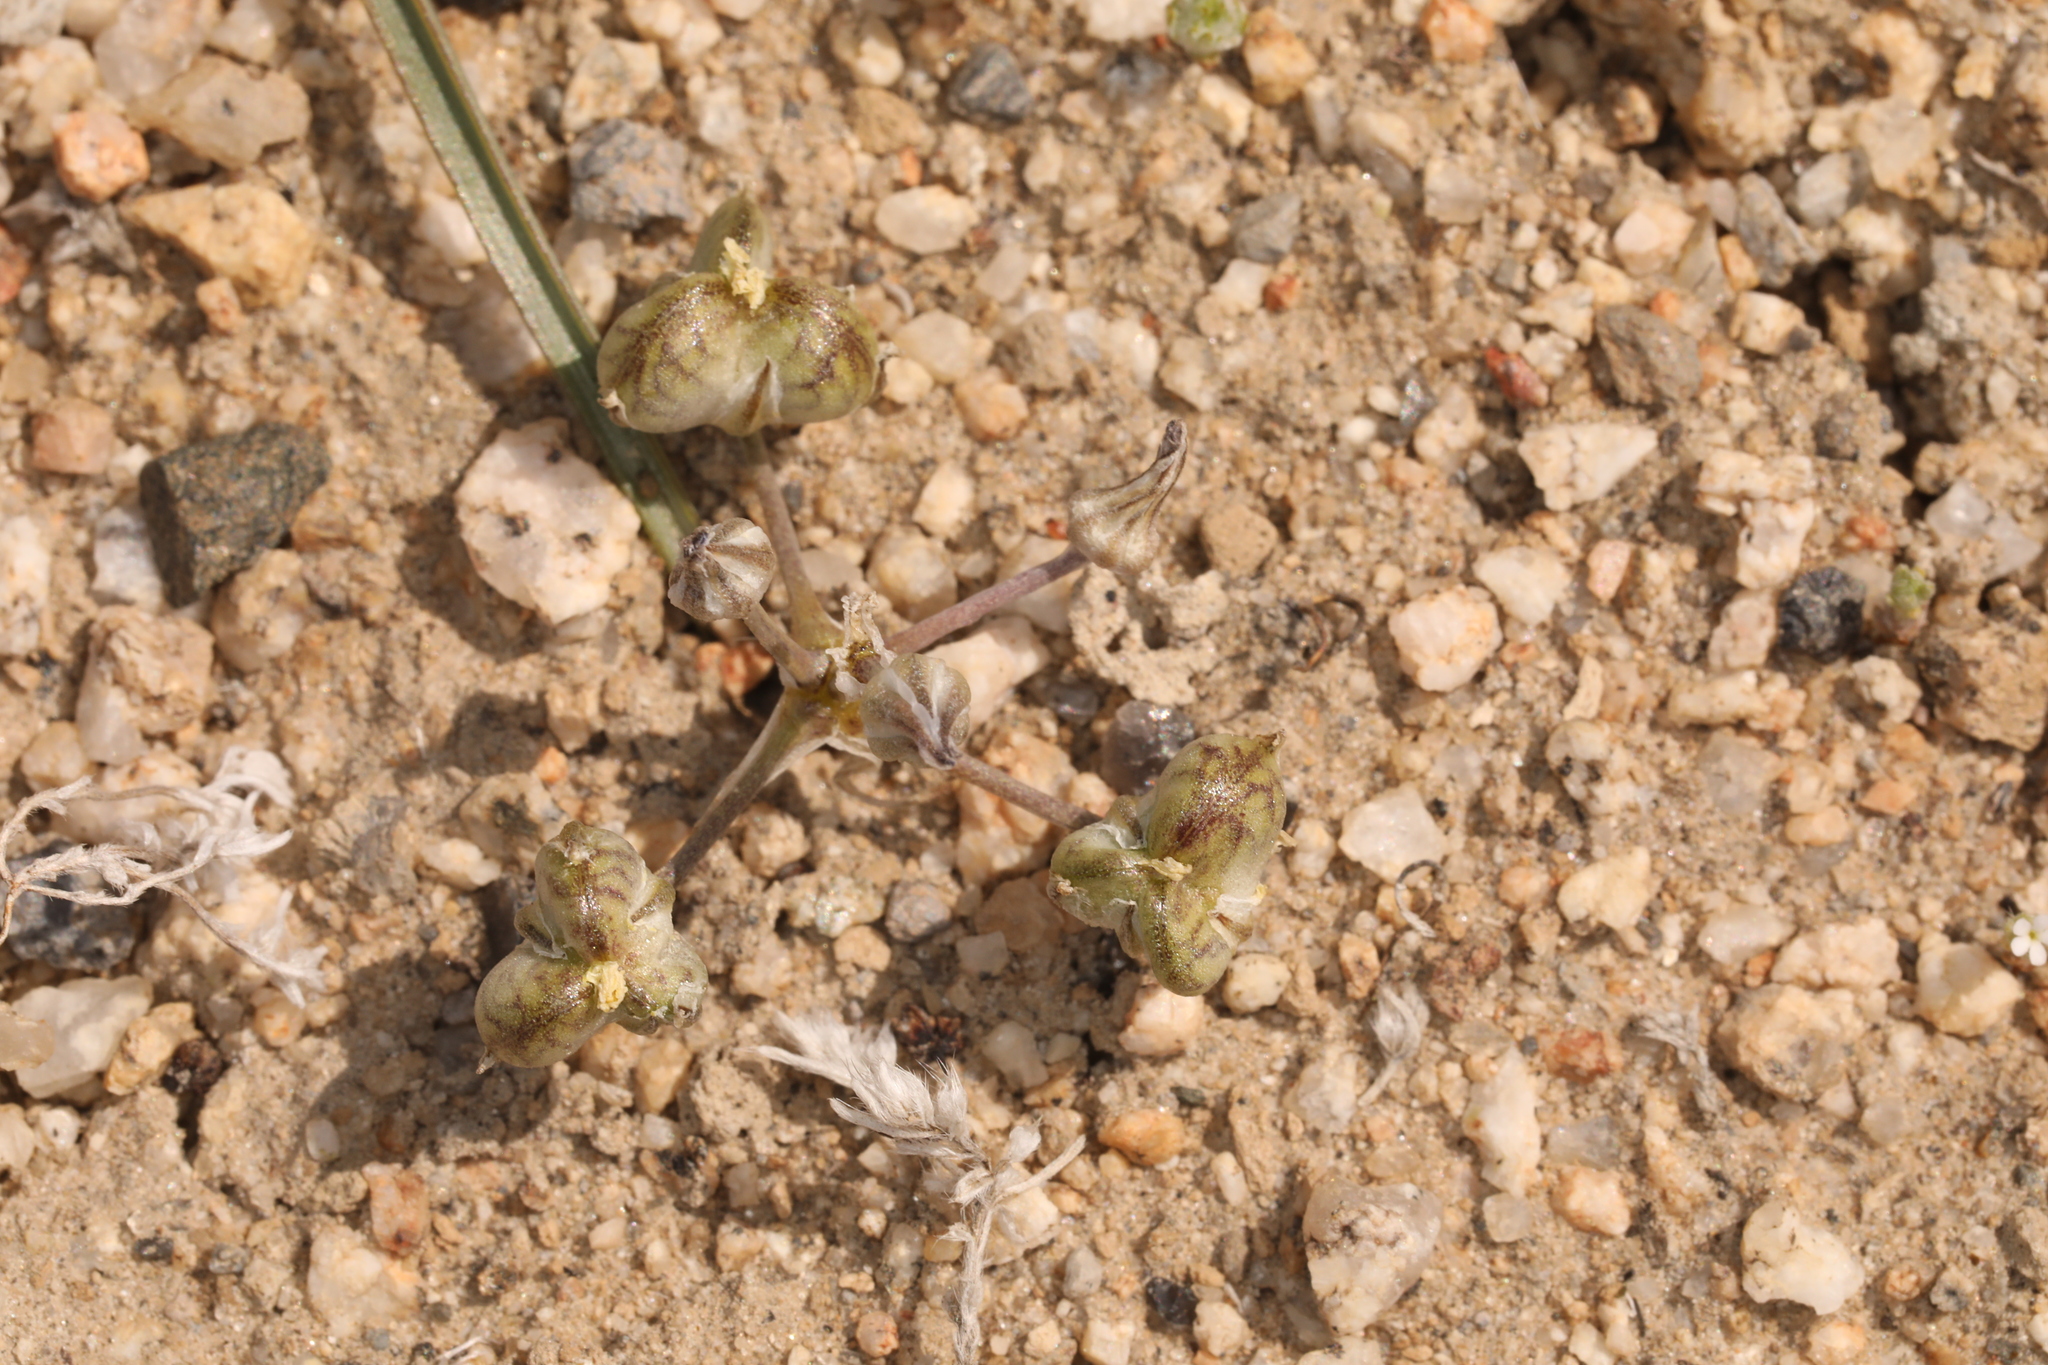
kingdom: Plantae
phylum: Tracheophyta
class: Liliopsida
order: Asparagales
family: Asparagaceae
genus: Muilla
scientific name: Muilla coronata
